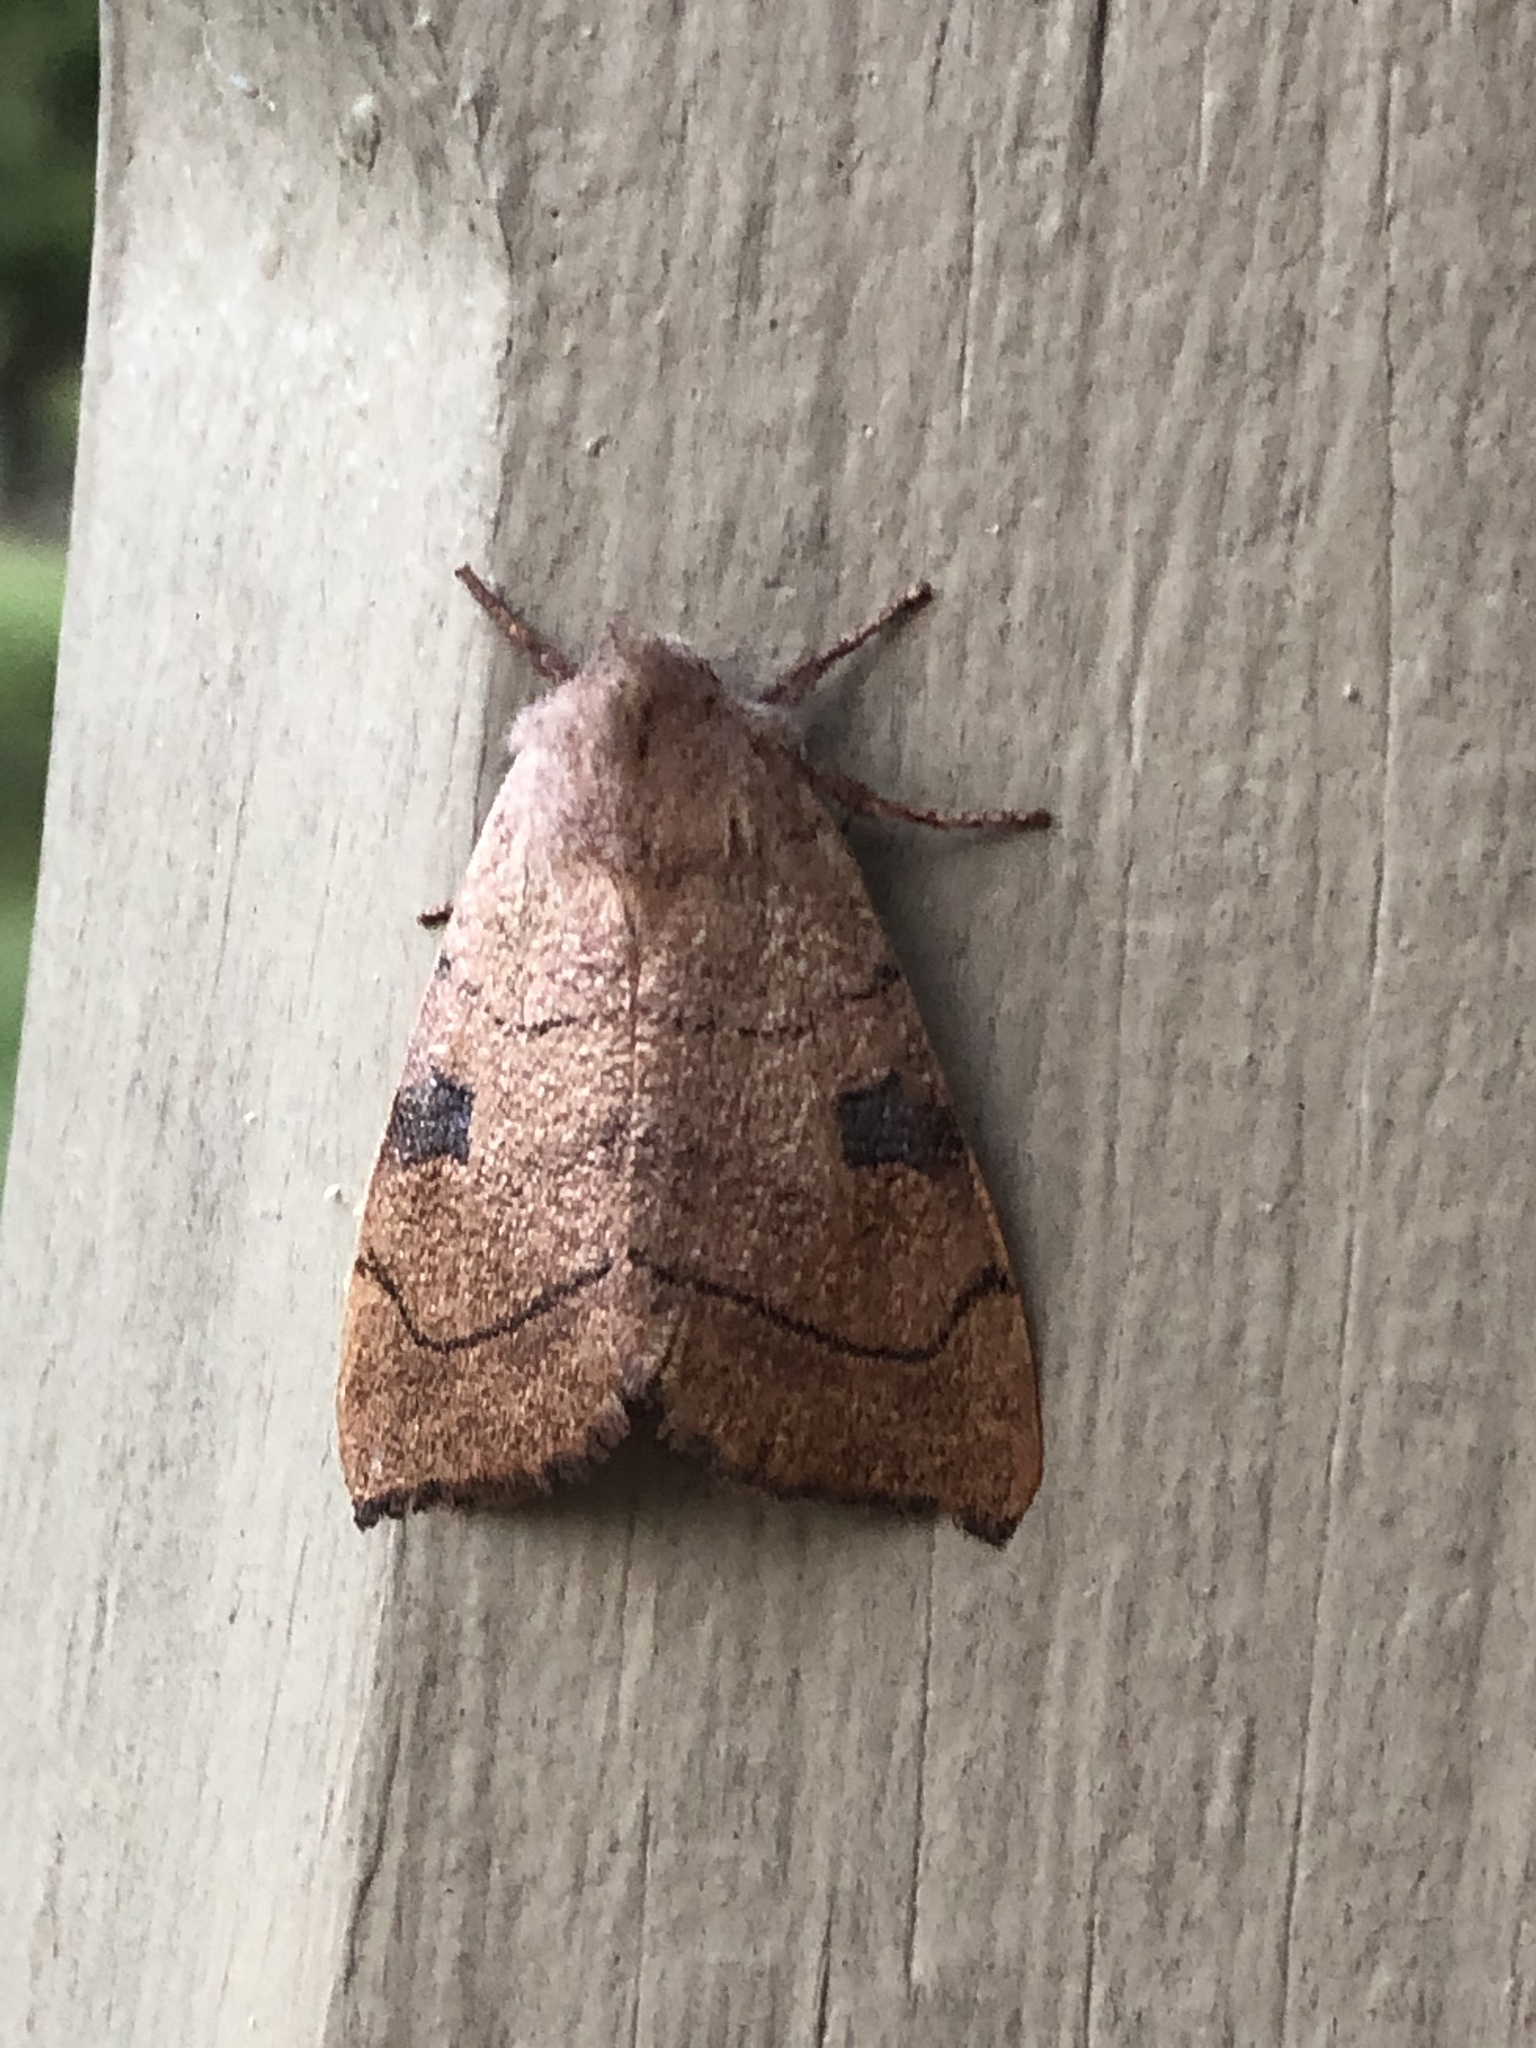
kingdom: Animalia
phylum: Arthropoda
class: Insecta
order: Lepidoptera
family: Noctuidae
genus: Choephora
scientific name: Choephora fungorum
